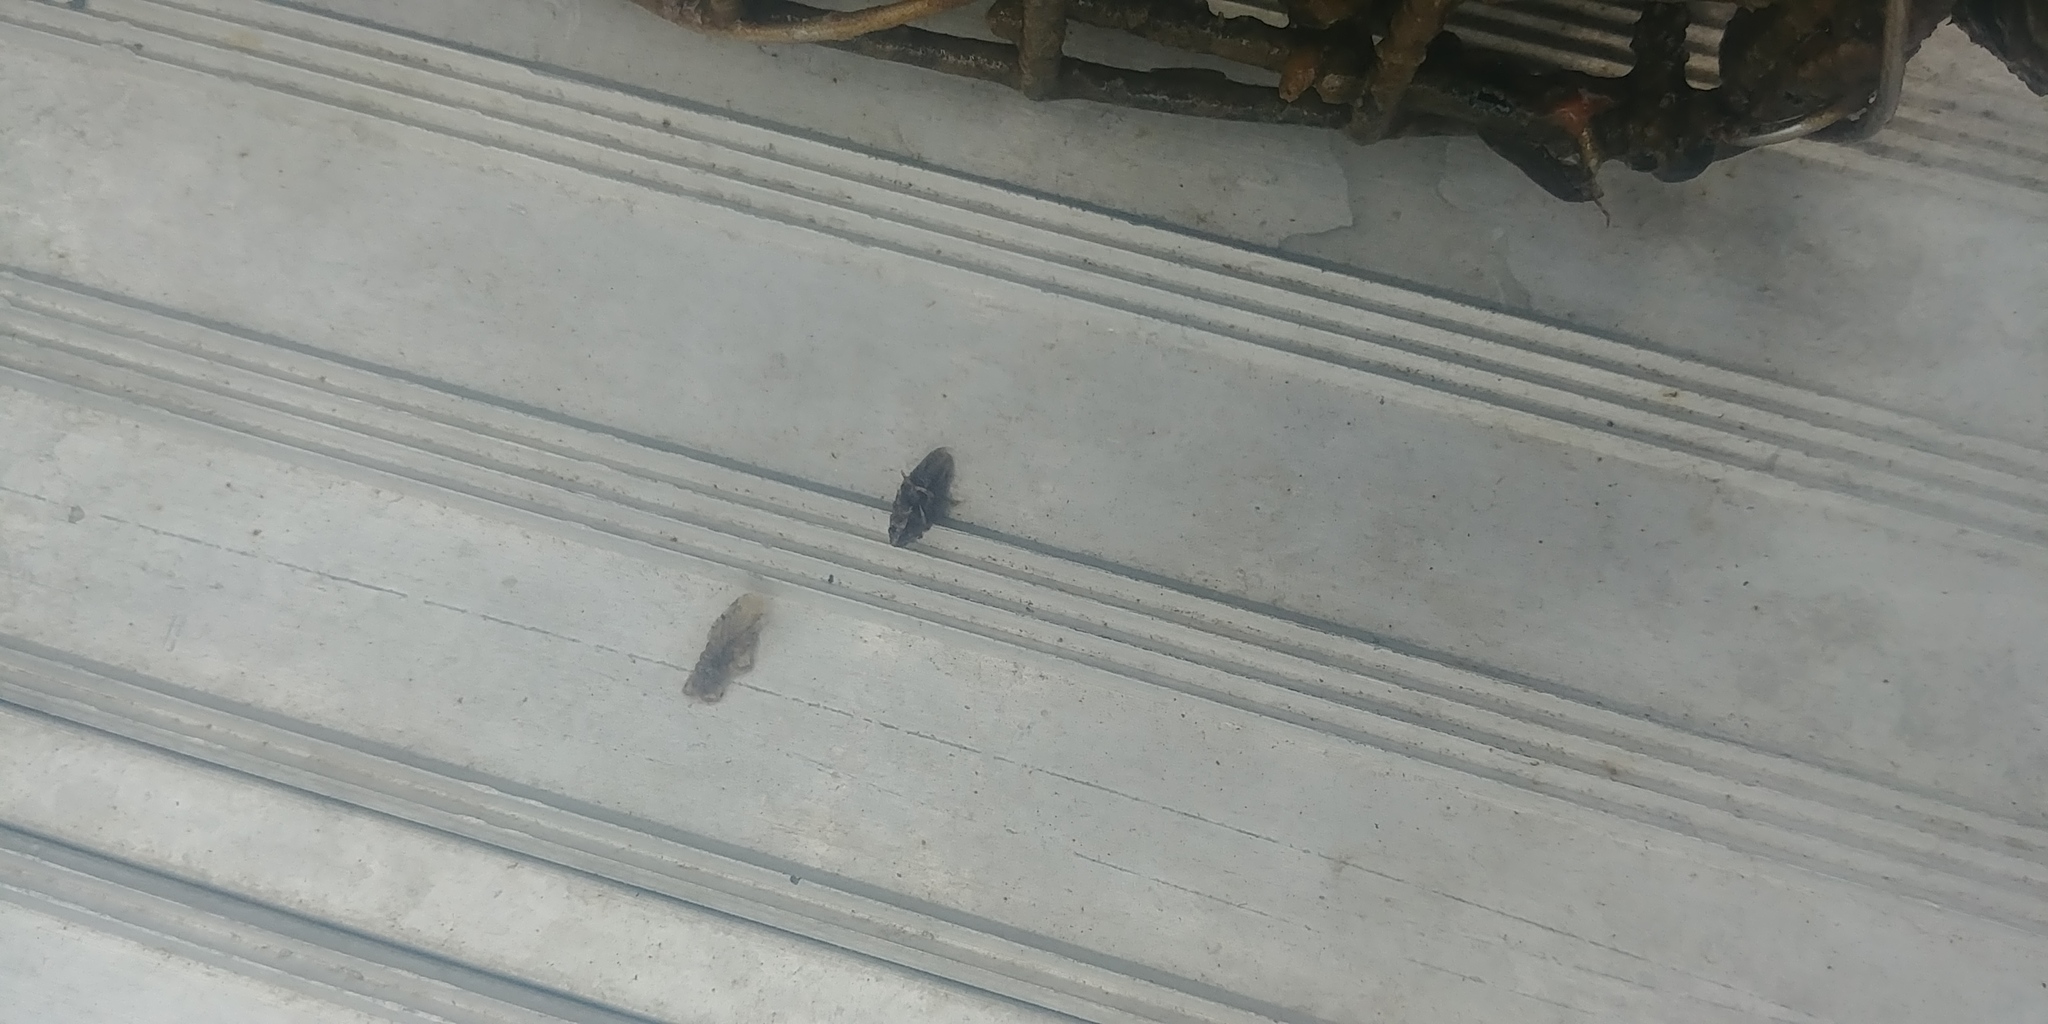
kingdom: Animalia
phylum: Arthropoda
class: Malacostraca
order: Isopoda
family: Idoteidae
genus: Synidotea
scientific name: Synidotea laticauda
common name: Isopod
